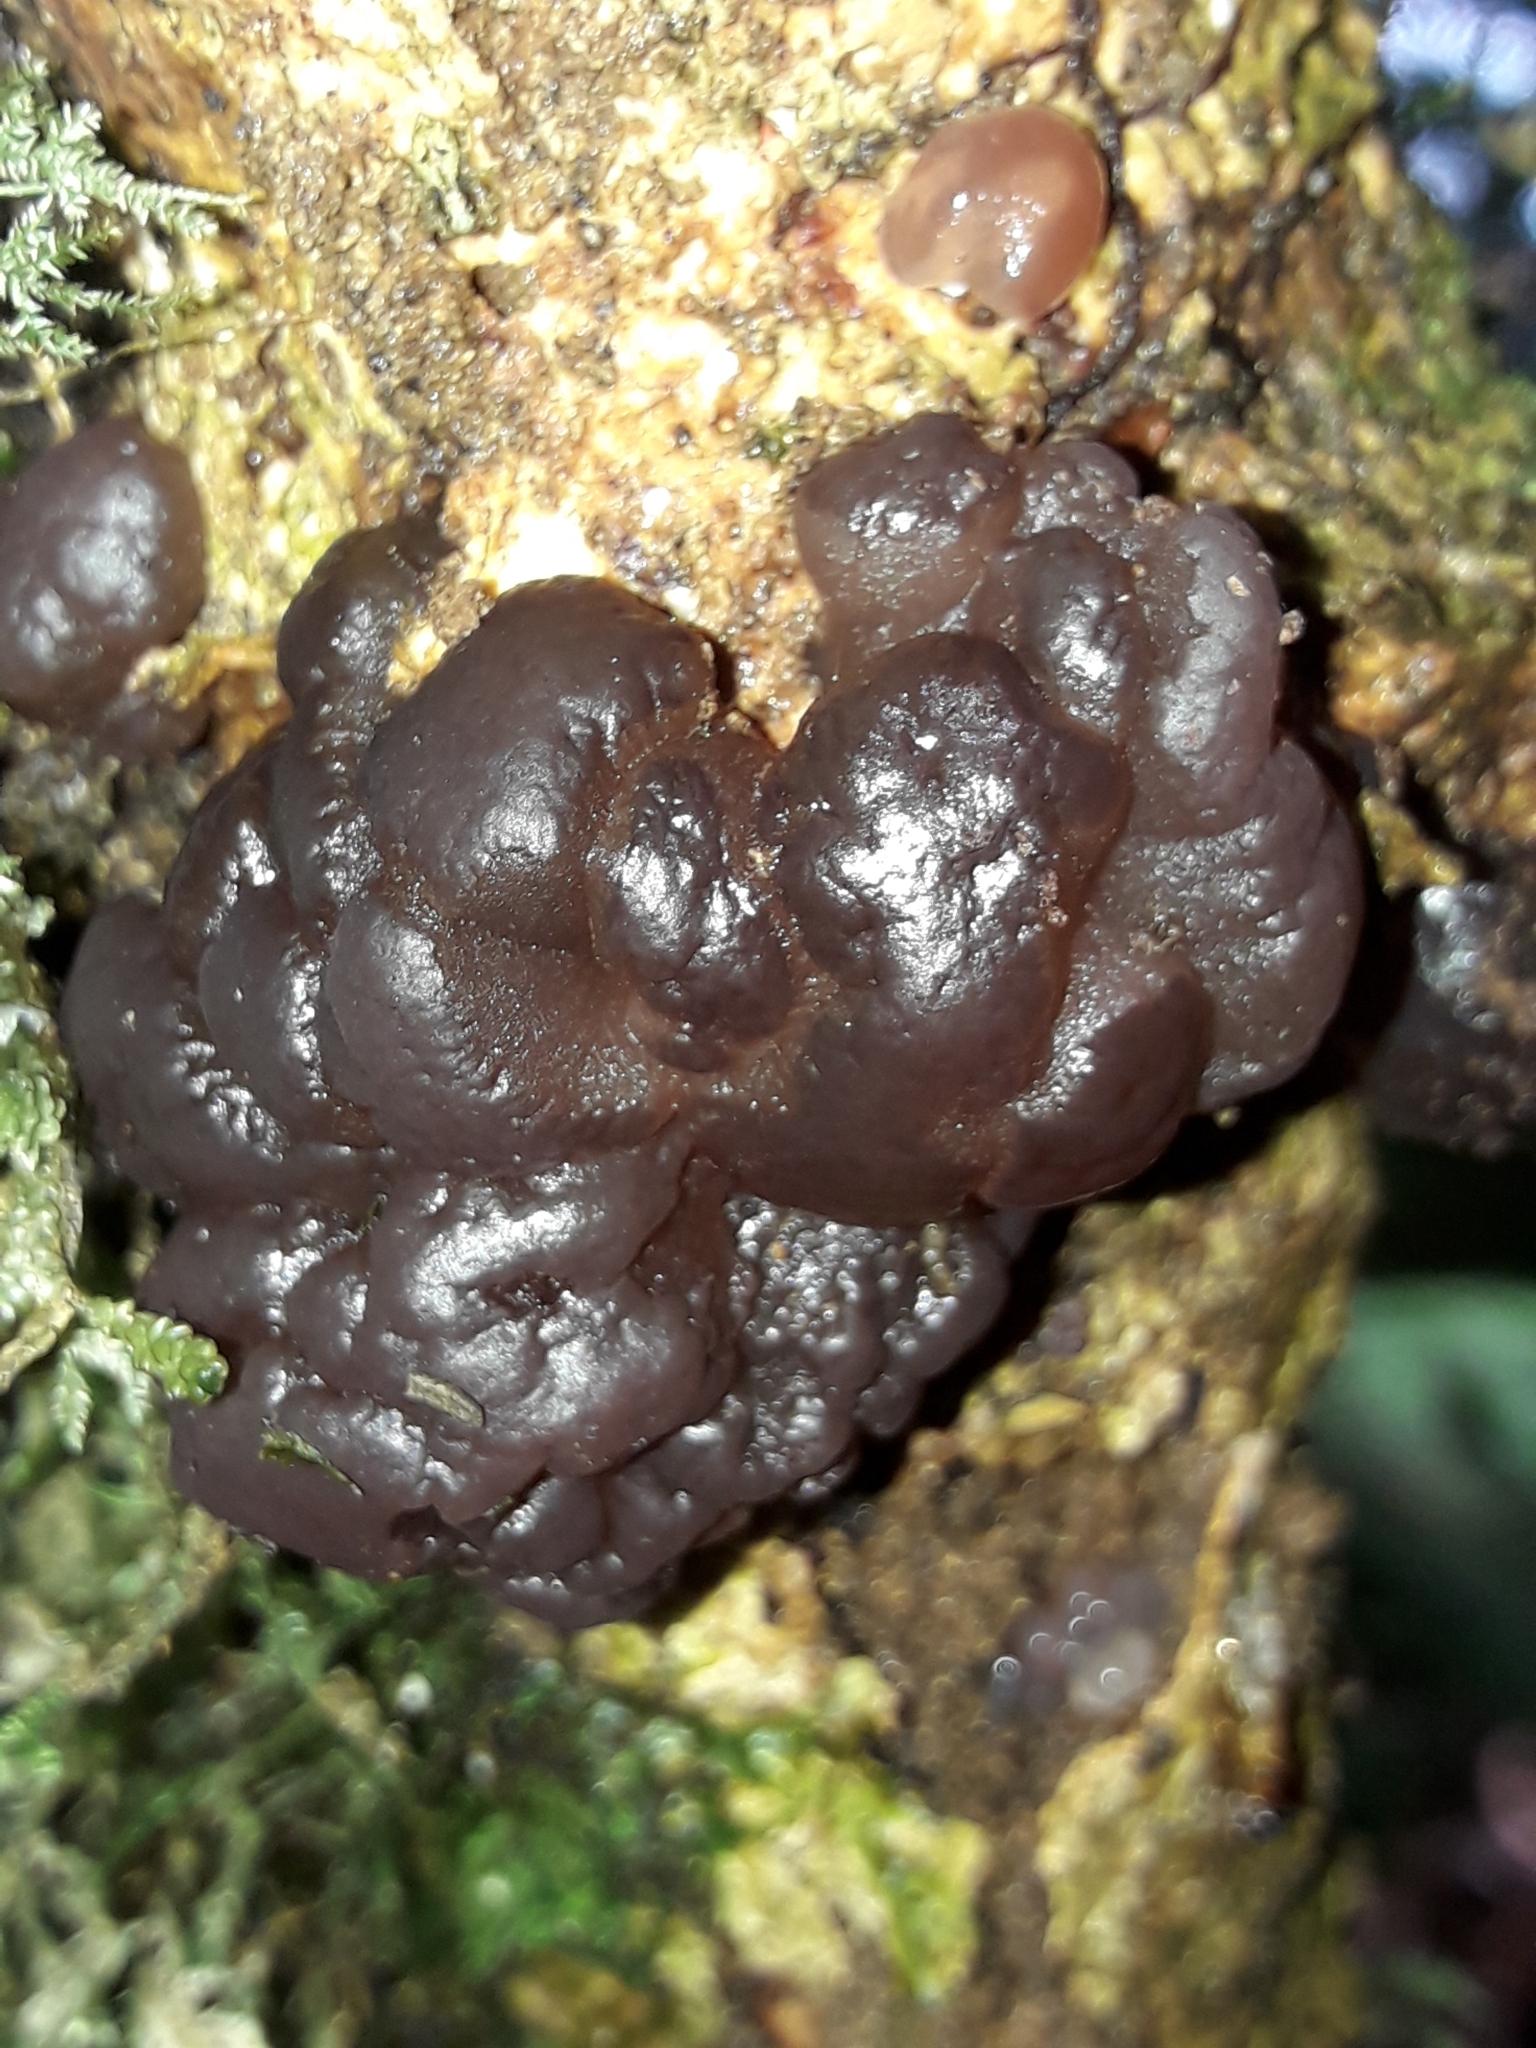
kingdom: Fungi
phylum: Basidiomycota
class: Agaricomycetes
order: Auriculariales
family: Auriculariaceae
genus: Tremellochaete
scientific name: Tremellochaete
